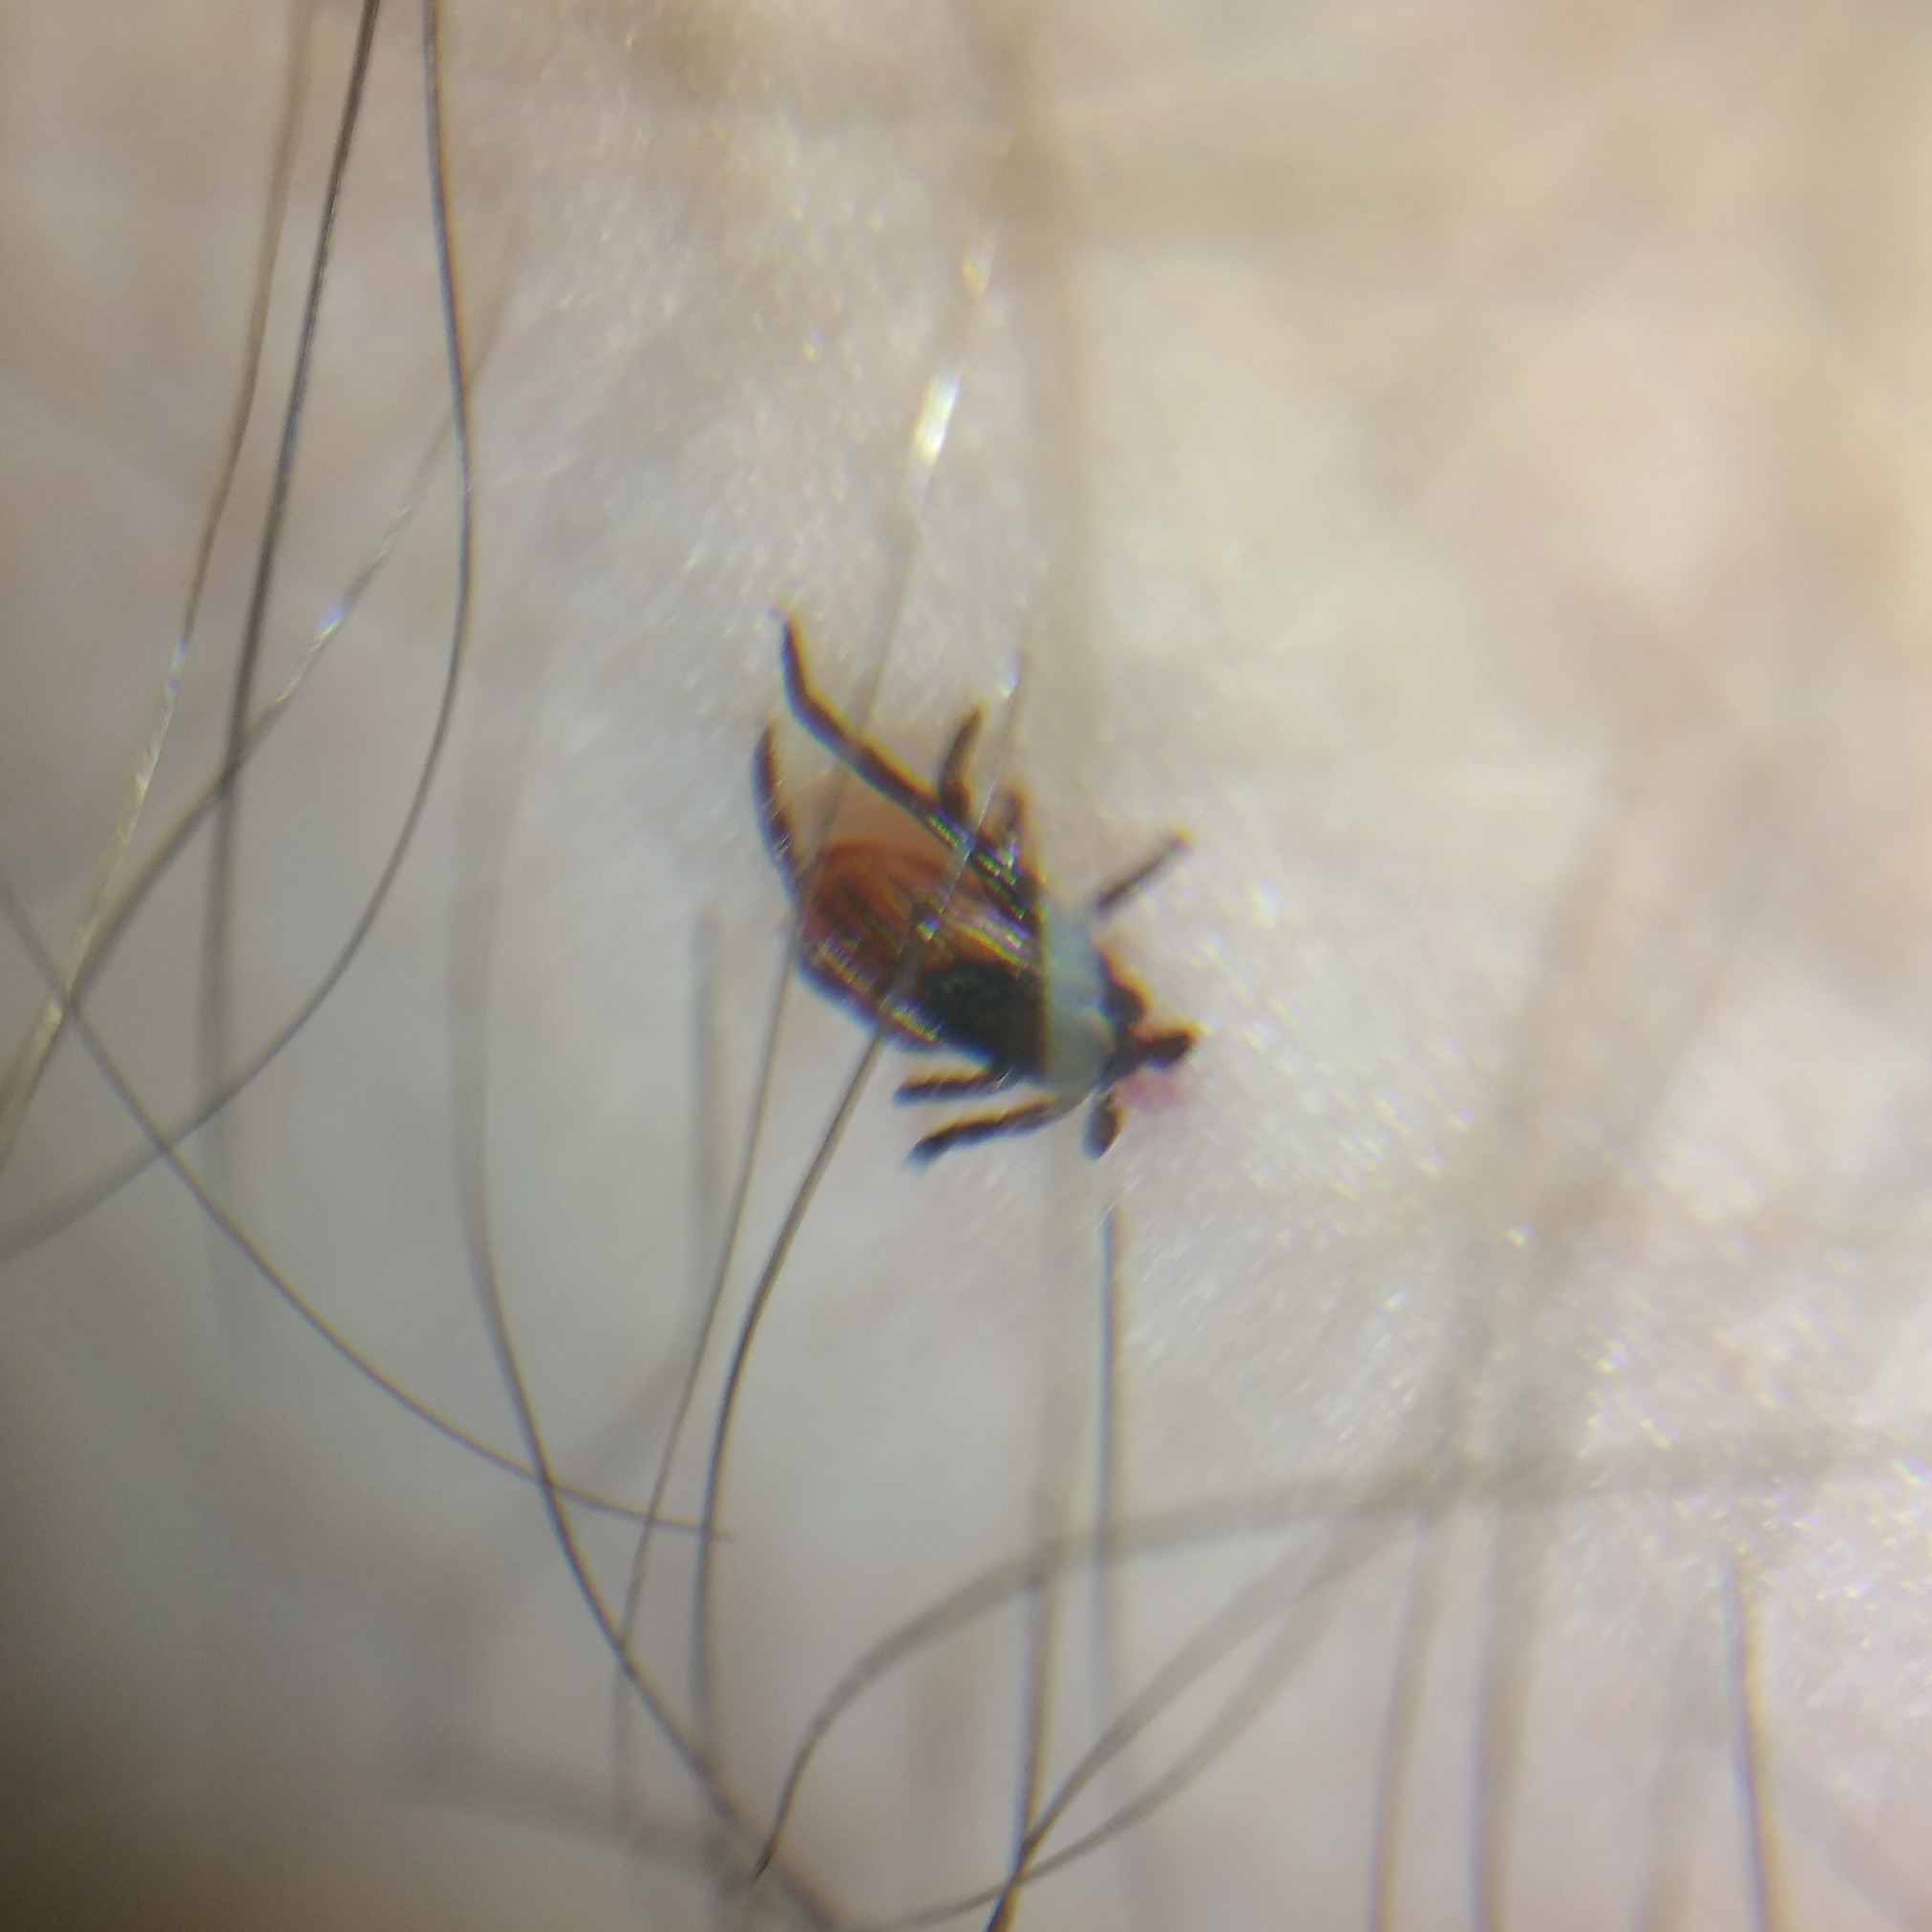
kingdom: Animalia
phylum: Arthropoda
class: Arachnida
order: Ixodida
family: Ixodidae
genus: Ixodes
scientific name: Ixodes scapularis
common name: Black legged tick
